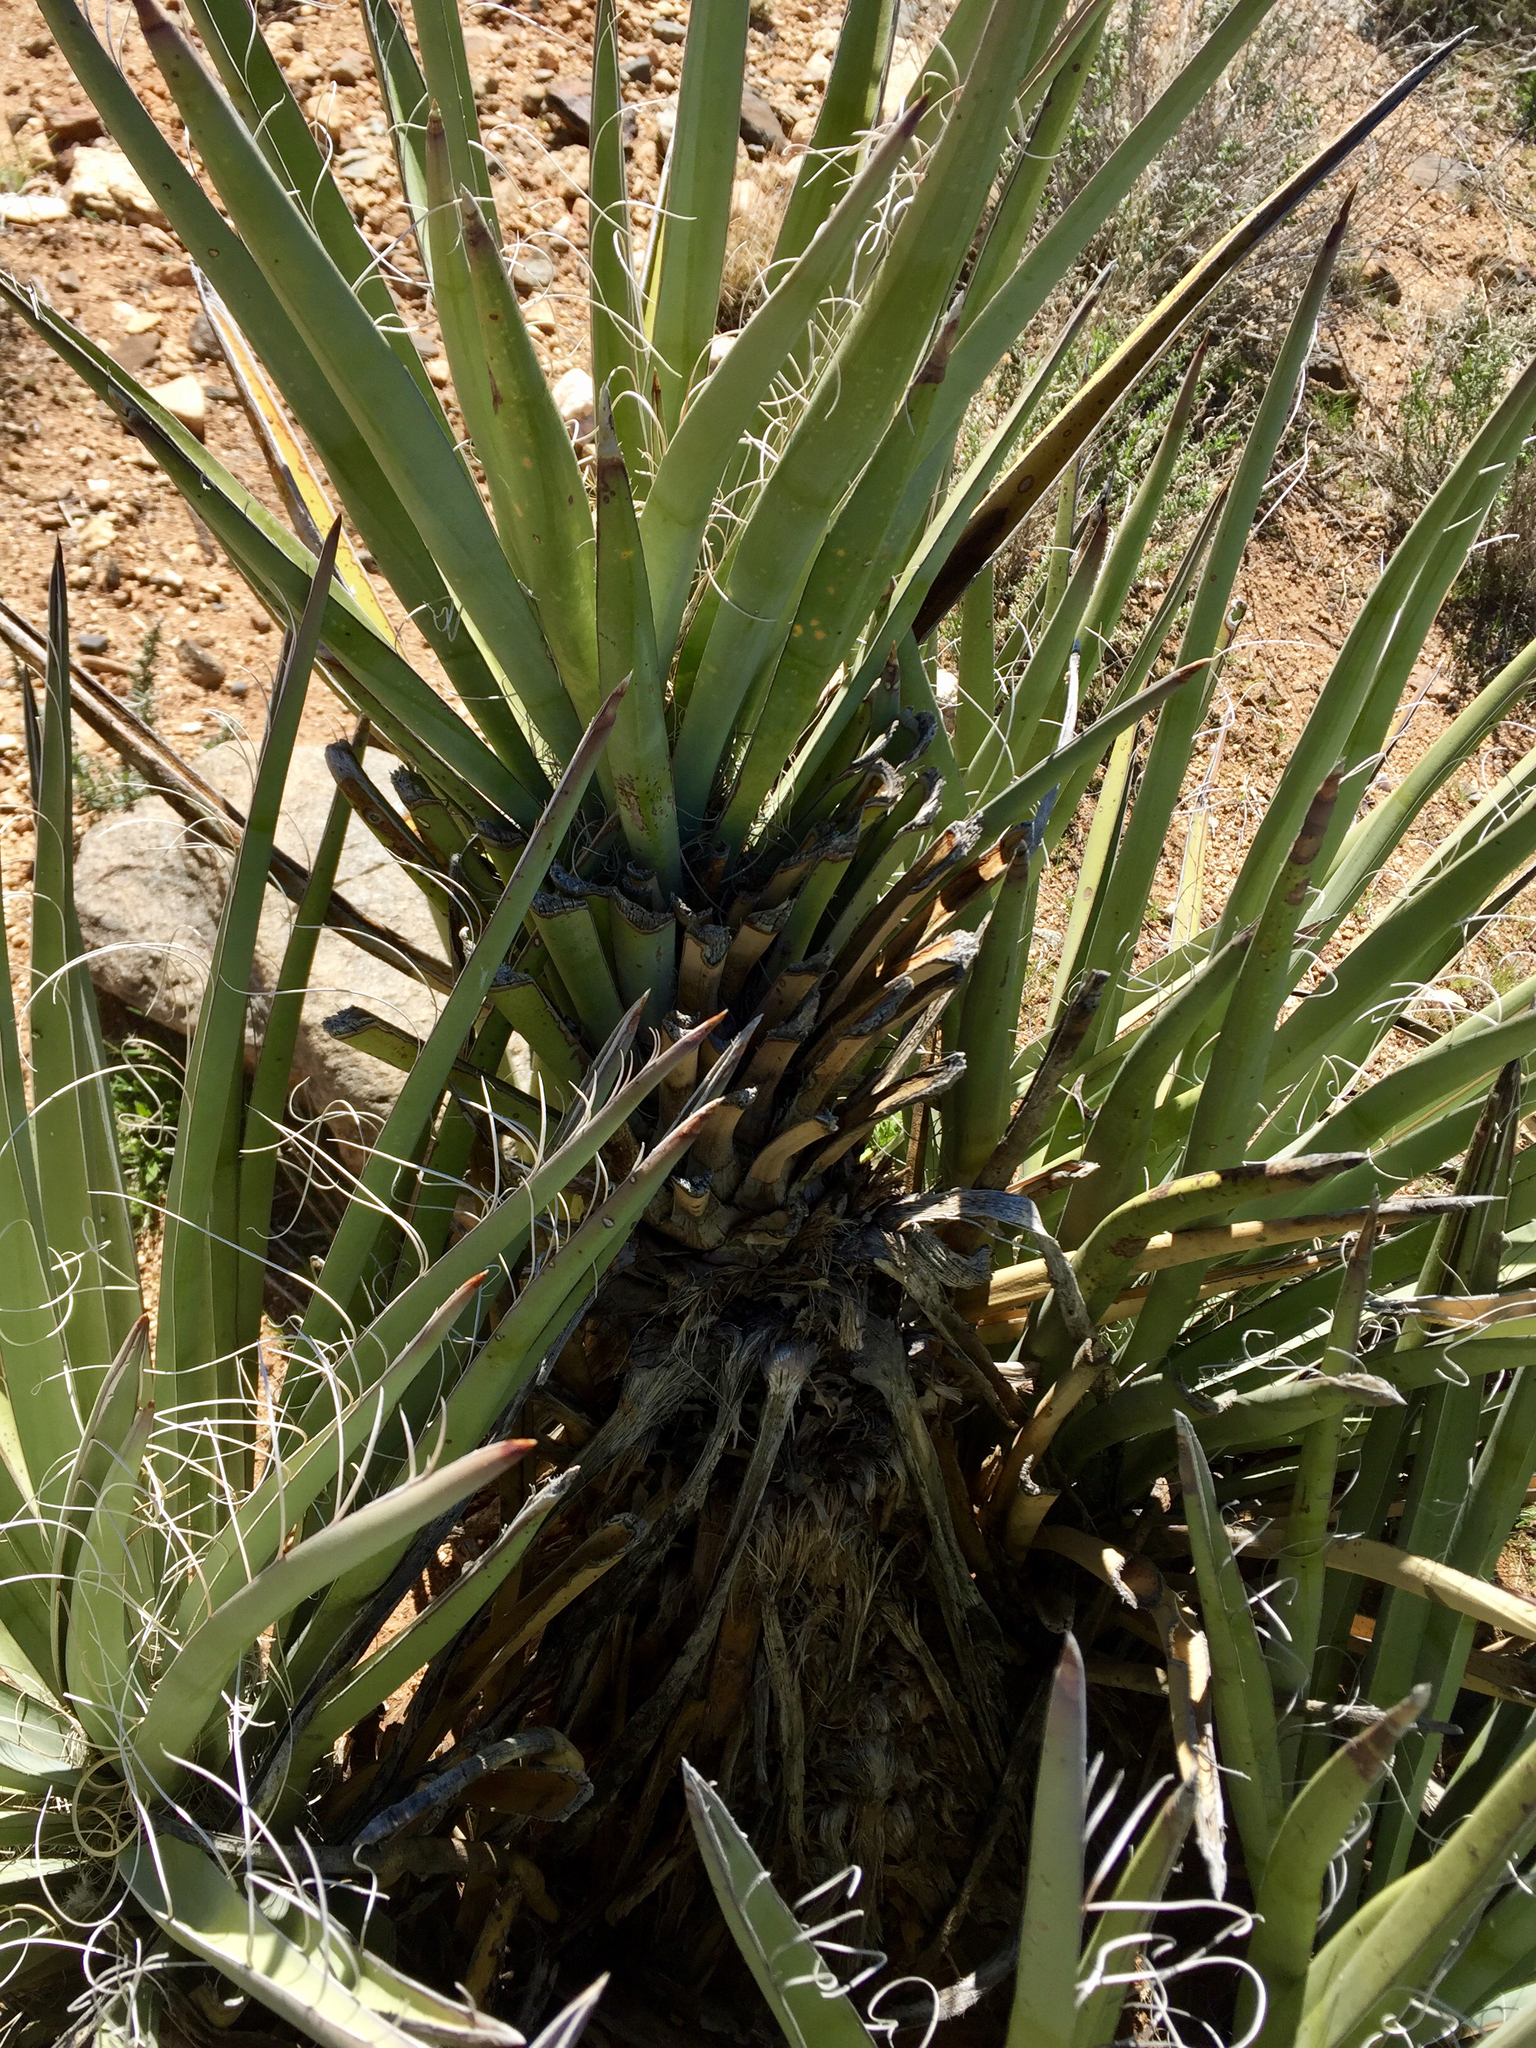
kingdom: Plantae
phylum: Tracheophyta
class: Liliopsida
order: Asparagales
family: Asparagaceae
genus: Yucca
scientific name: Yucca baccata
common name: Banana yucca
